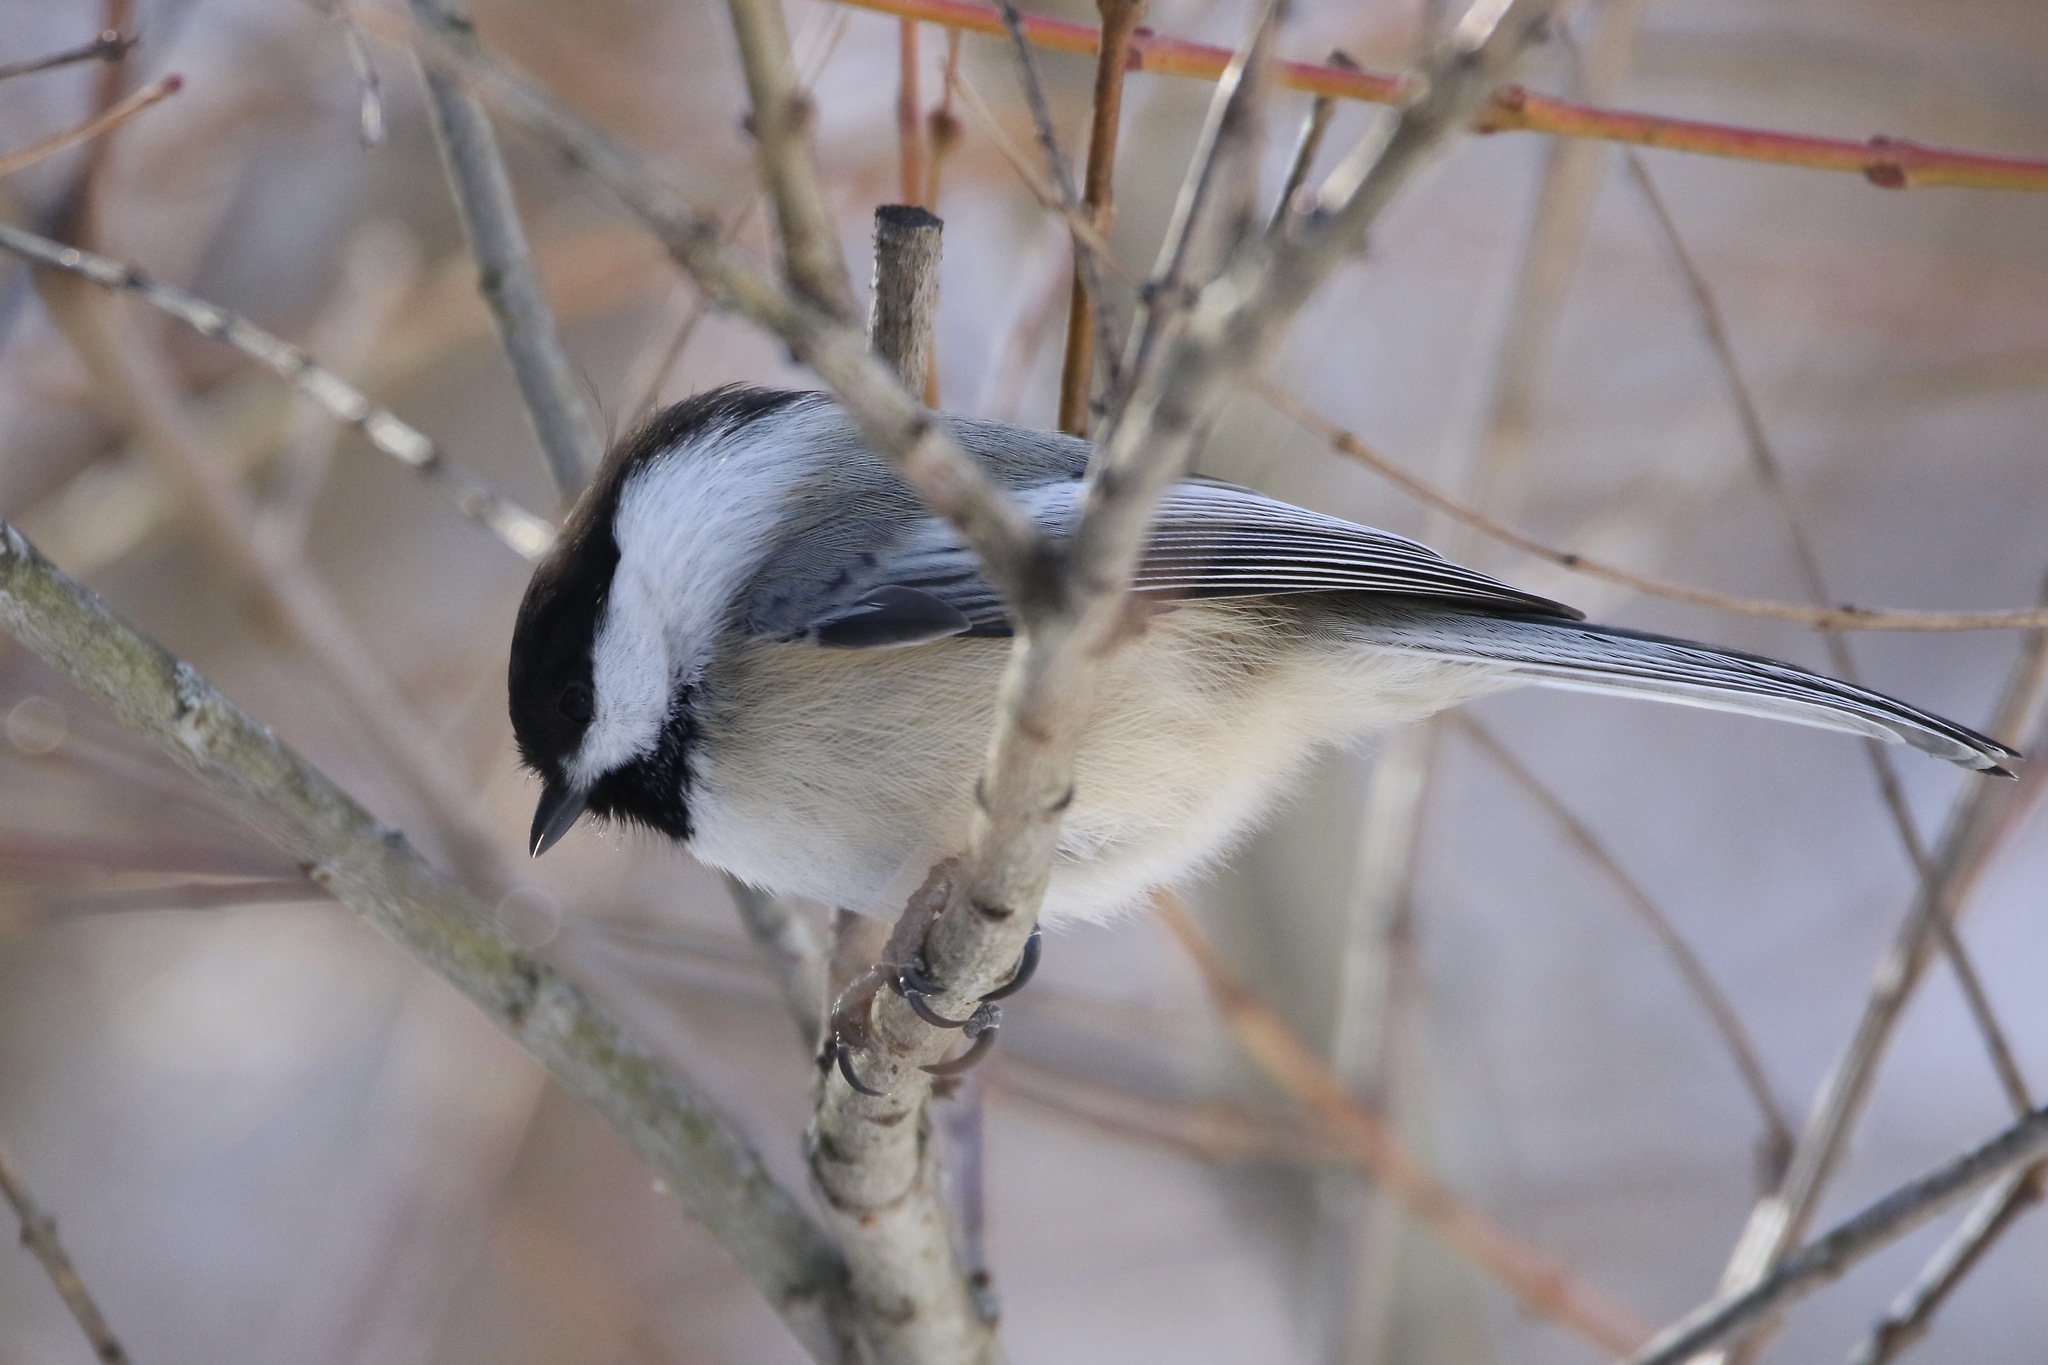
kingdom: Animalia
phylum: Chordata
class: Aves
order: Passeriformes
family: Paridae
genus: Poecile
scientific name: Poecile atricapillus
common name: Black-capped chickadee
